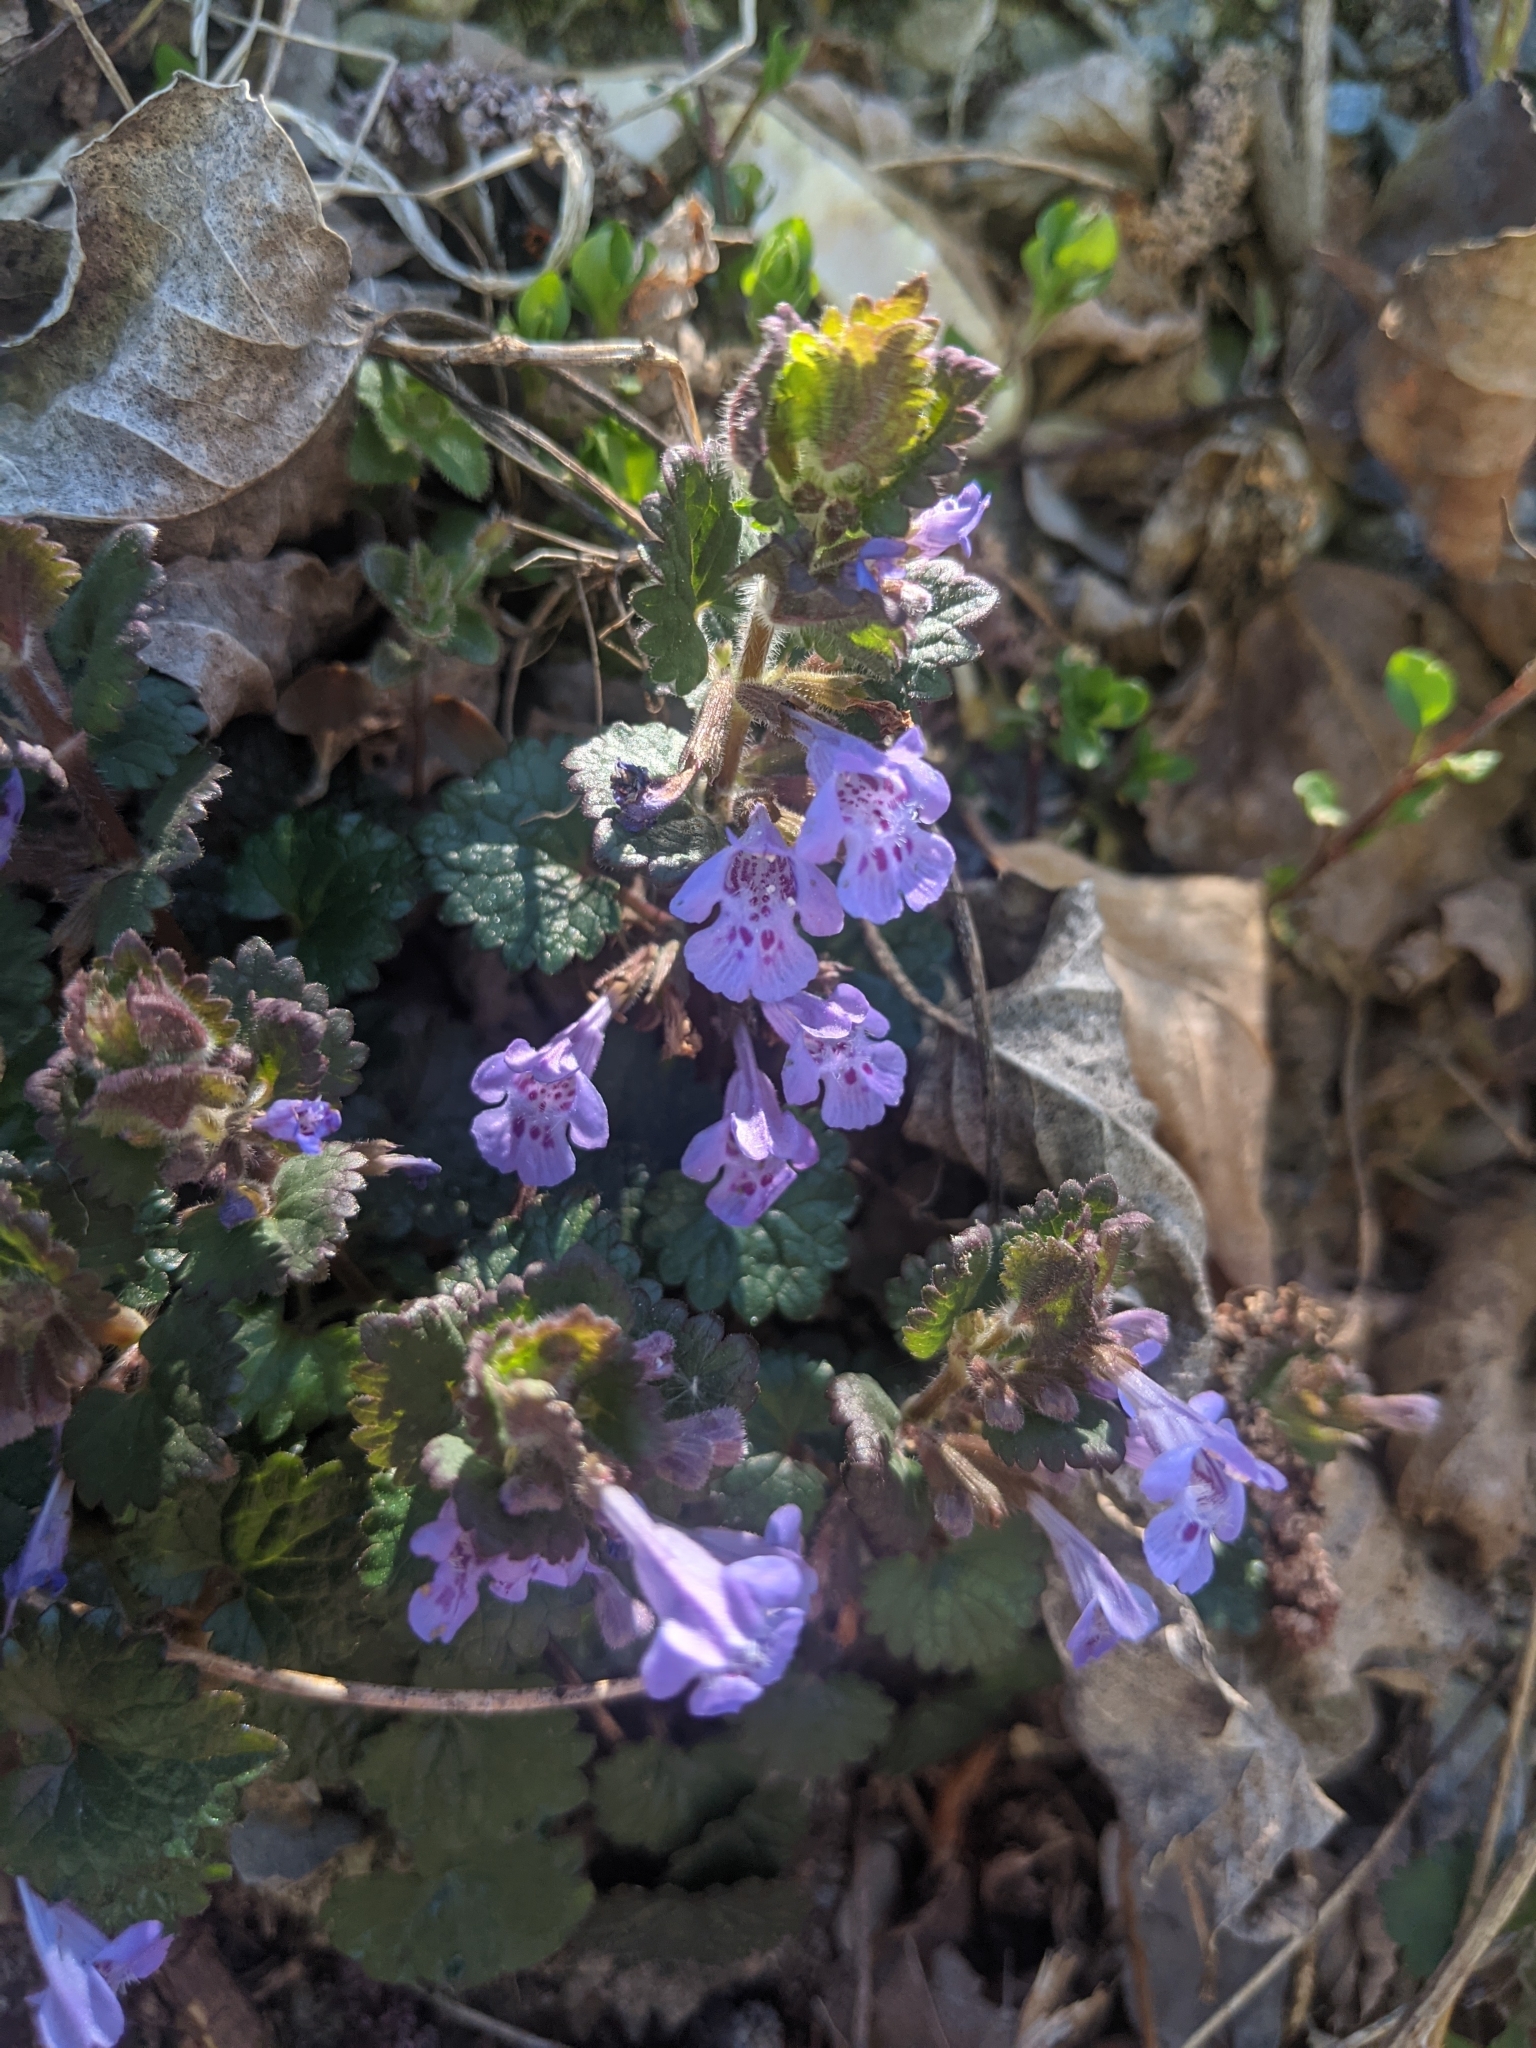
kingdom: Plantae
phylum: Tracheophyta
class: Magnoliopsida
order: Lamiales
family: Lamiaceae
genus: Glechoma
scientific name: Glechoma hederacea
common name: Ground ivy
